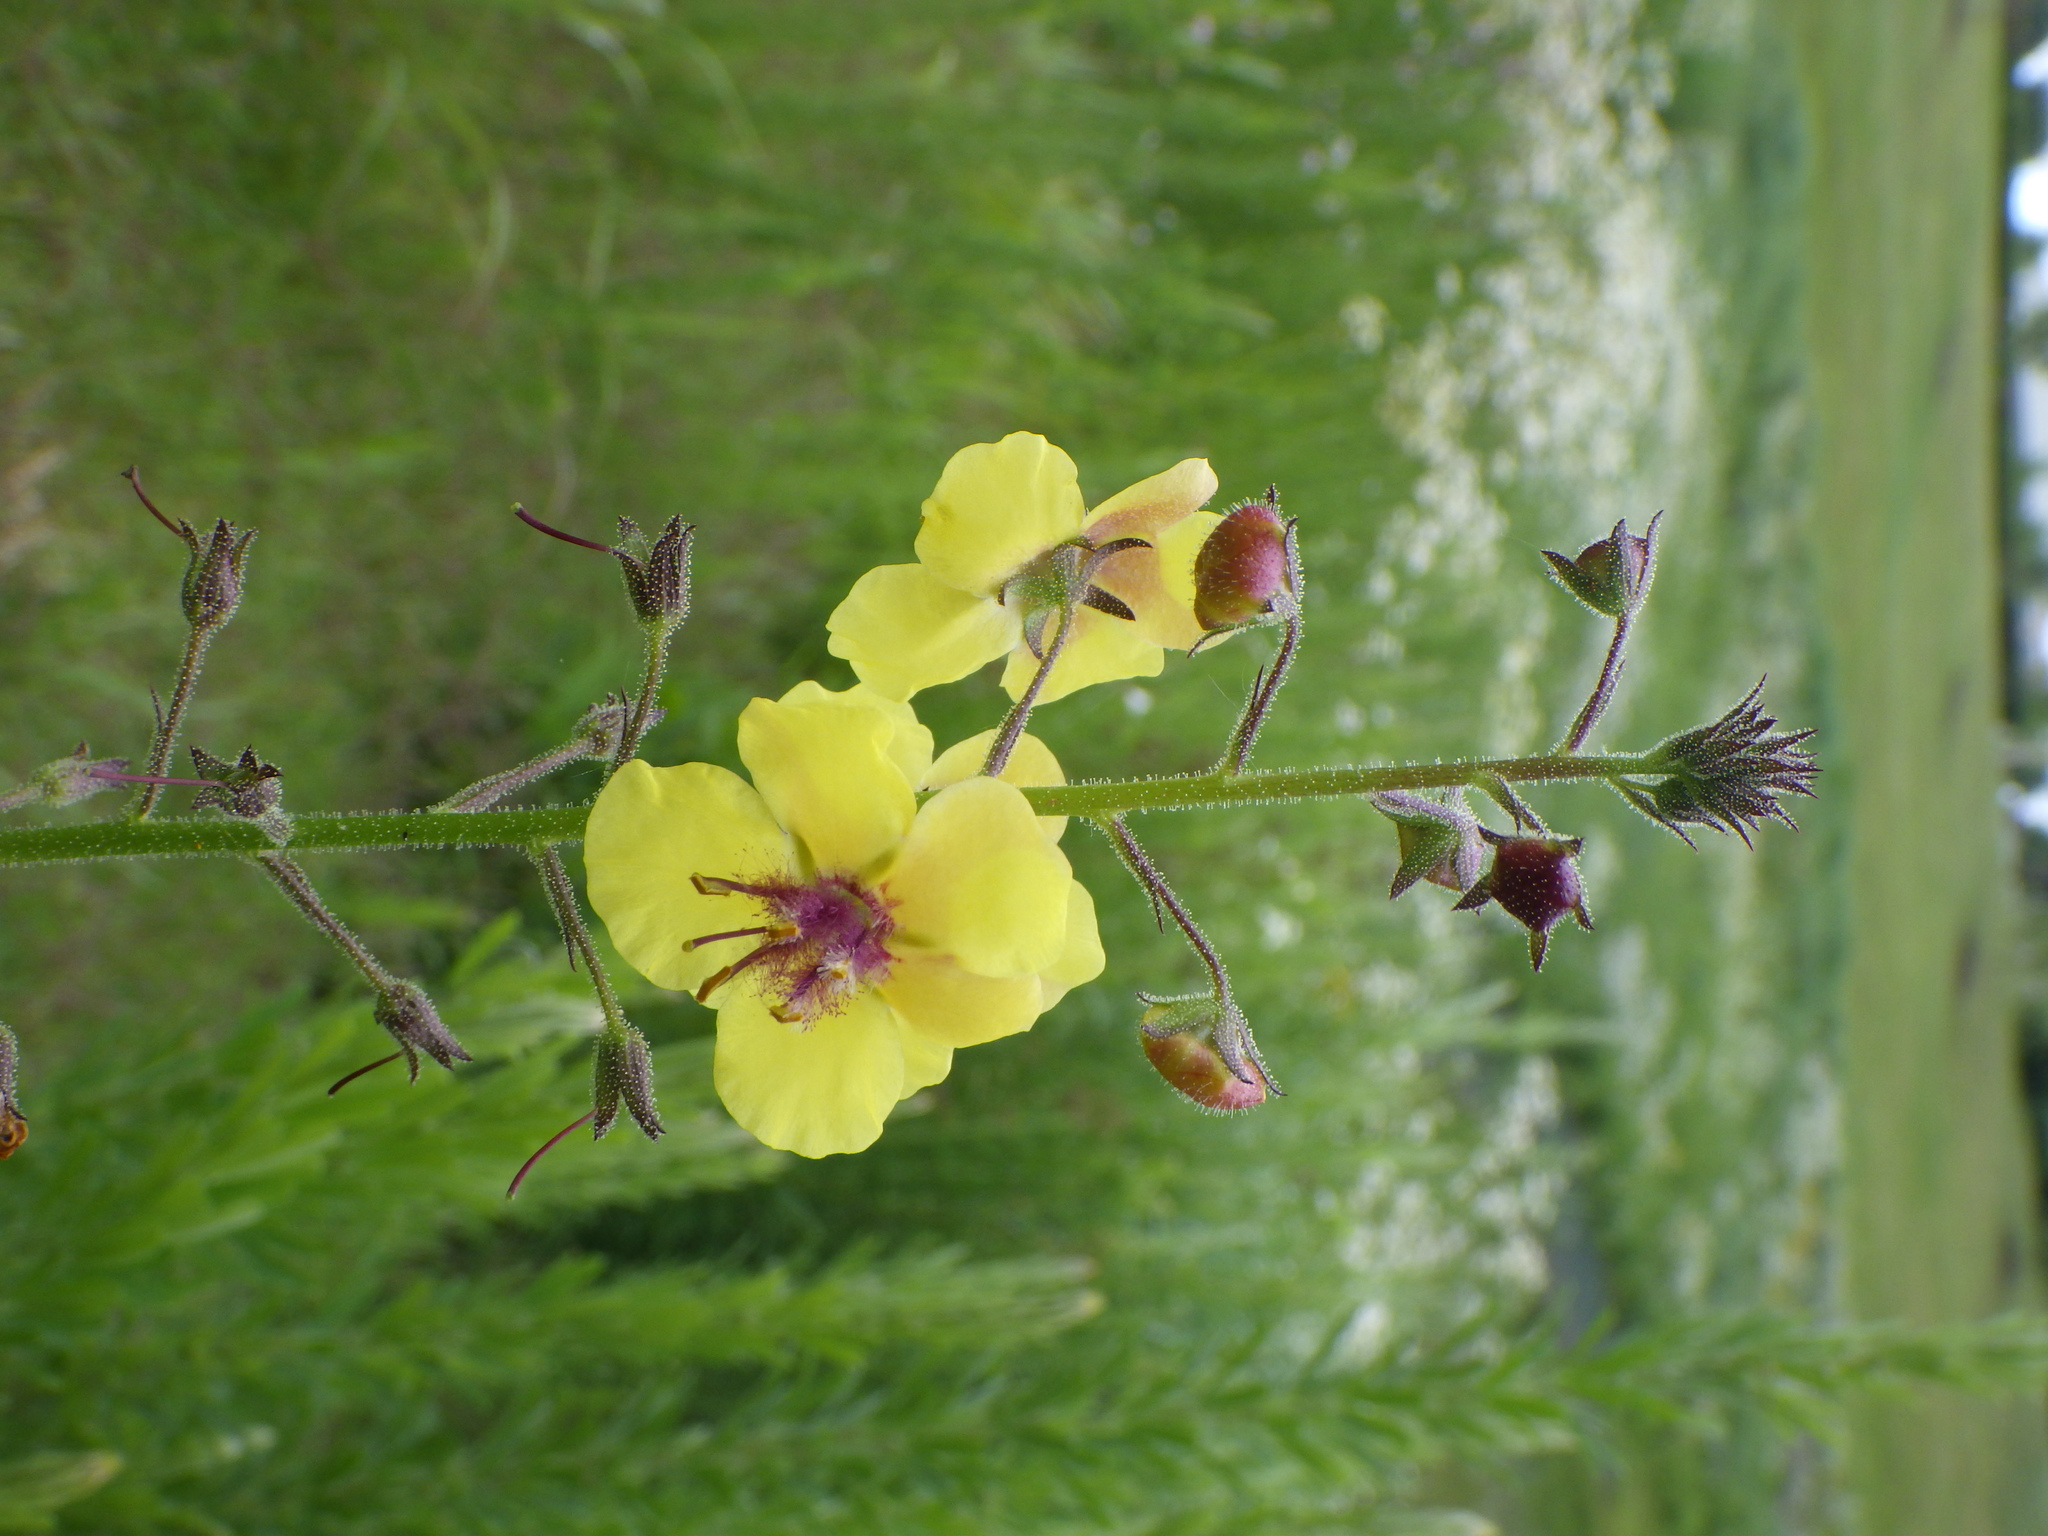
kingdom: Plantae
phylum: Tracheophyta
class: Magnoliopsida
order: Lamiales
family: Scrophulariaceae
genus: Verbascum
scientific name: Verbascum blattaria
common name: Moth mullein
